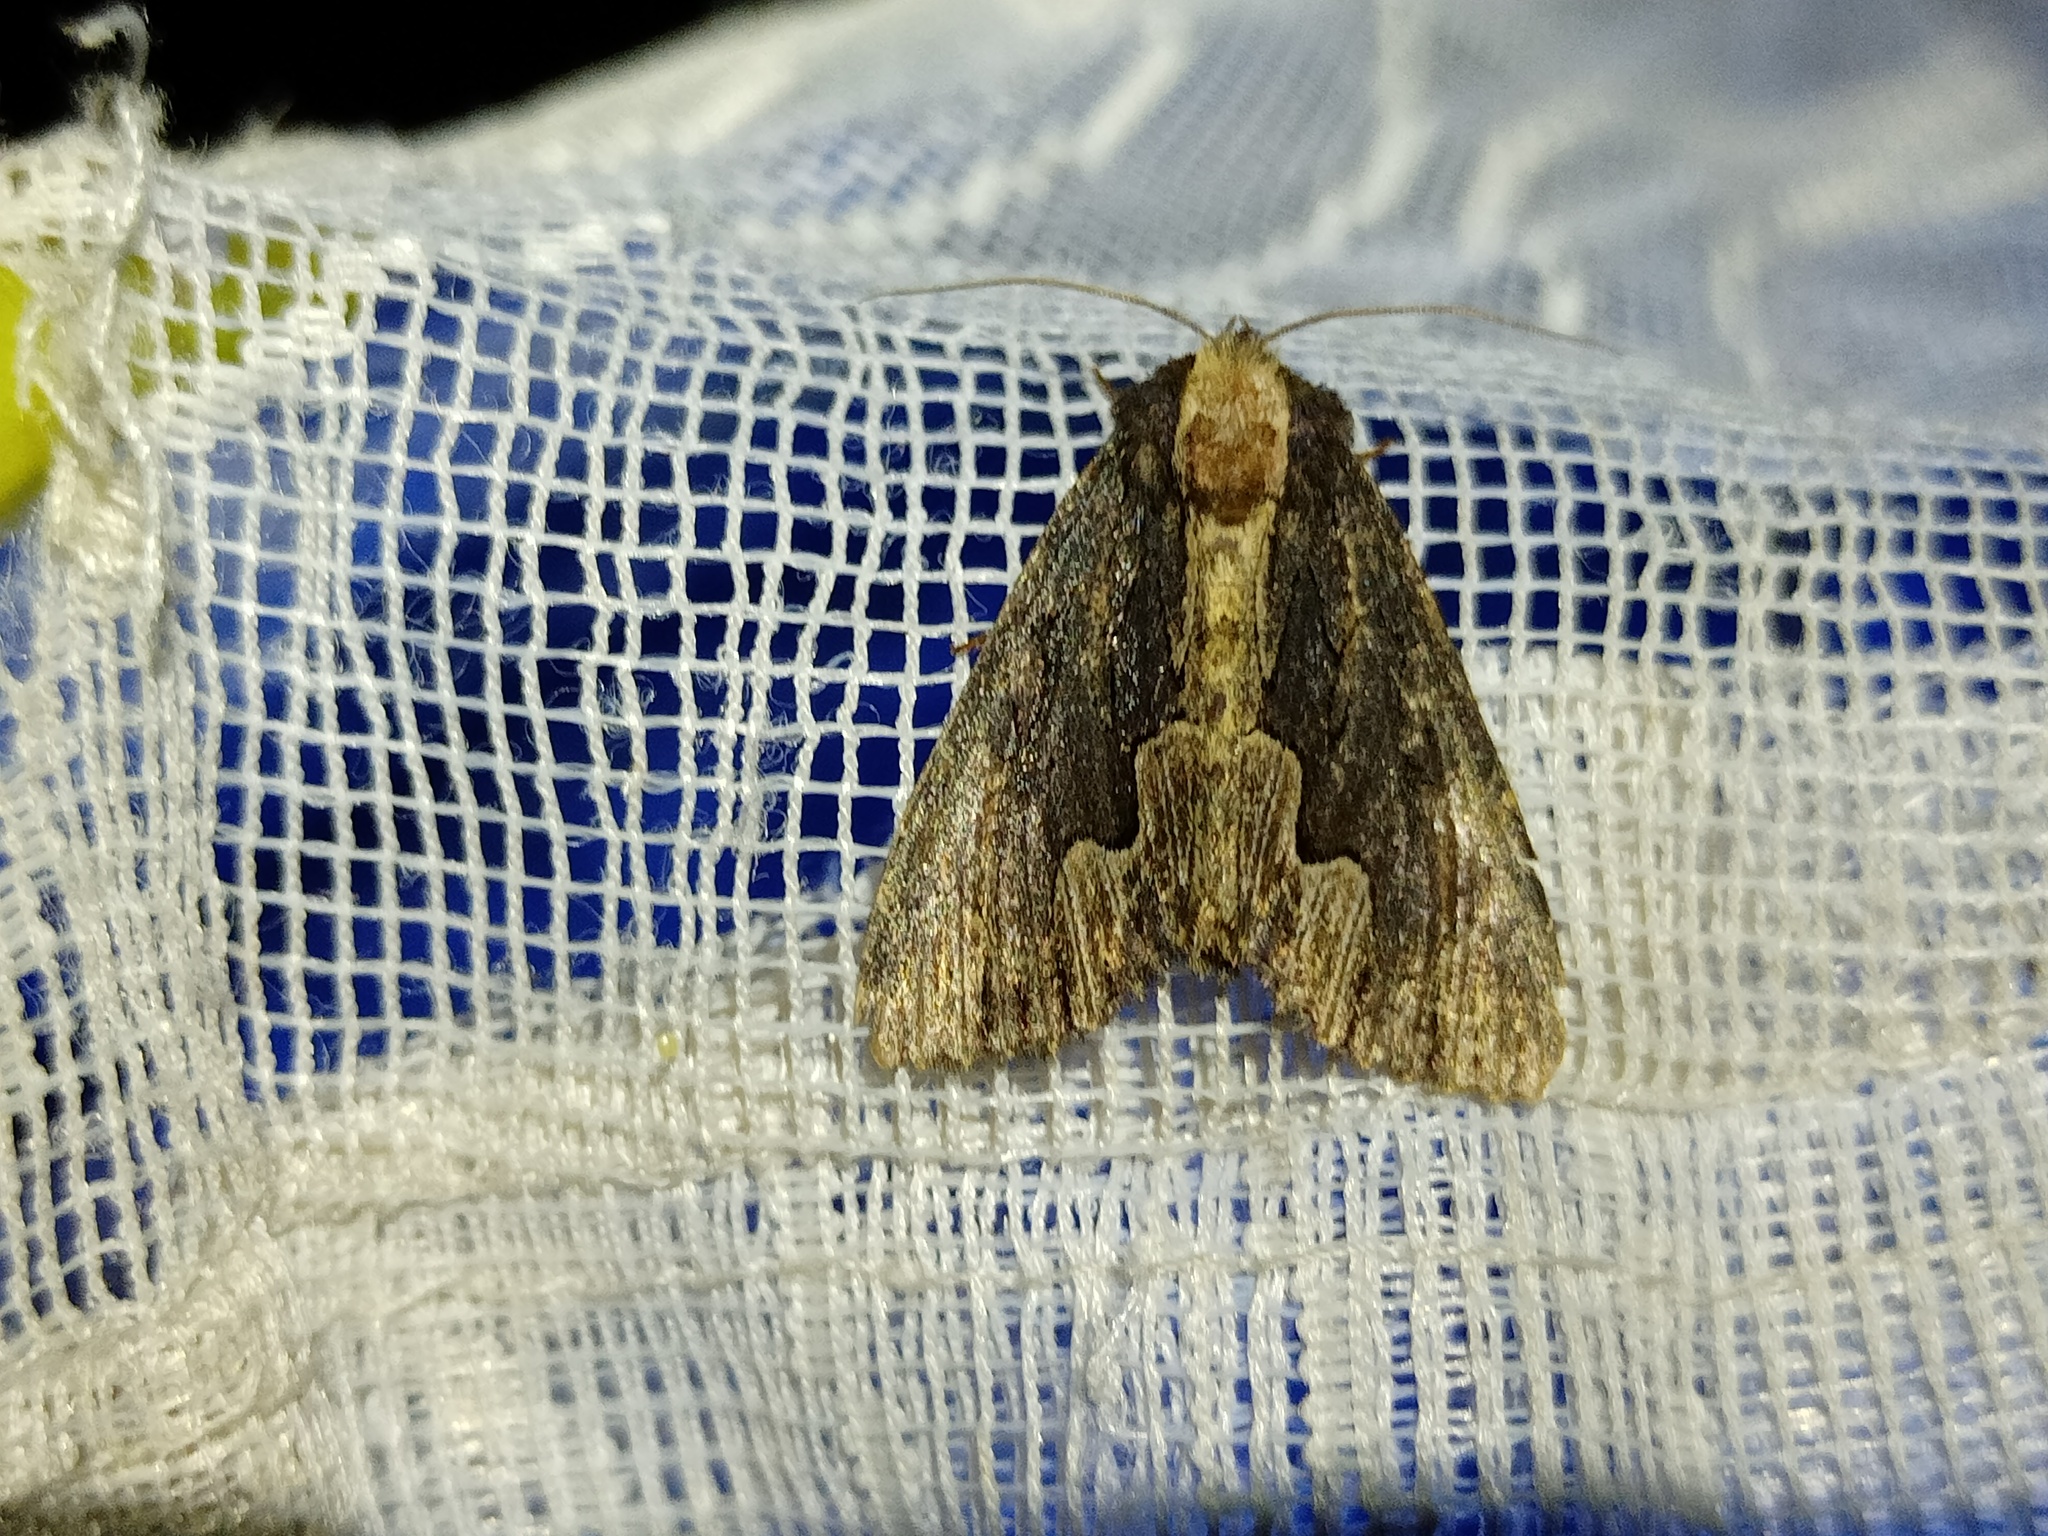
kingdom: Animalia
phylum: Arthropoda
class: Insecta
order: Lepidoptera
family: Noctuidae
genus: Dypterygia
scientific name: Dypterygia scabriuscula
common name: Bird's wing
